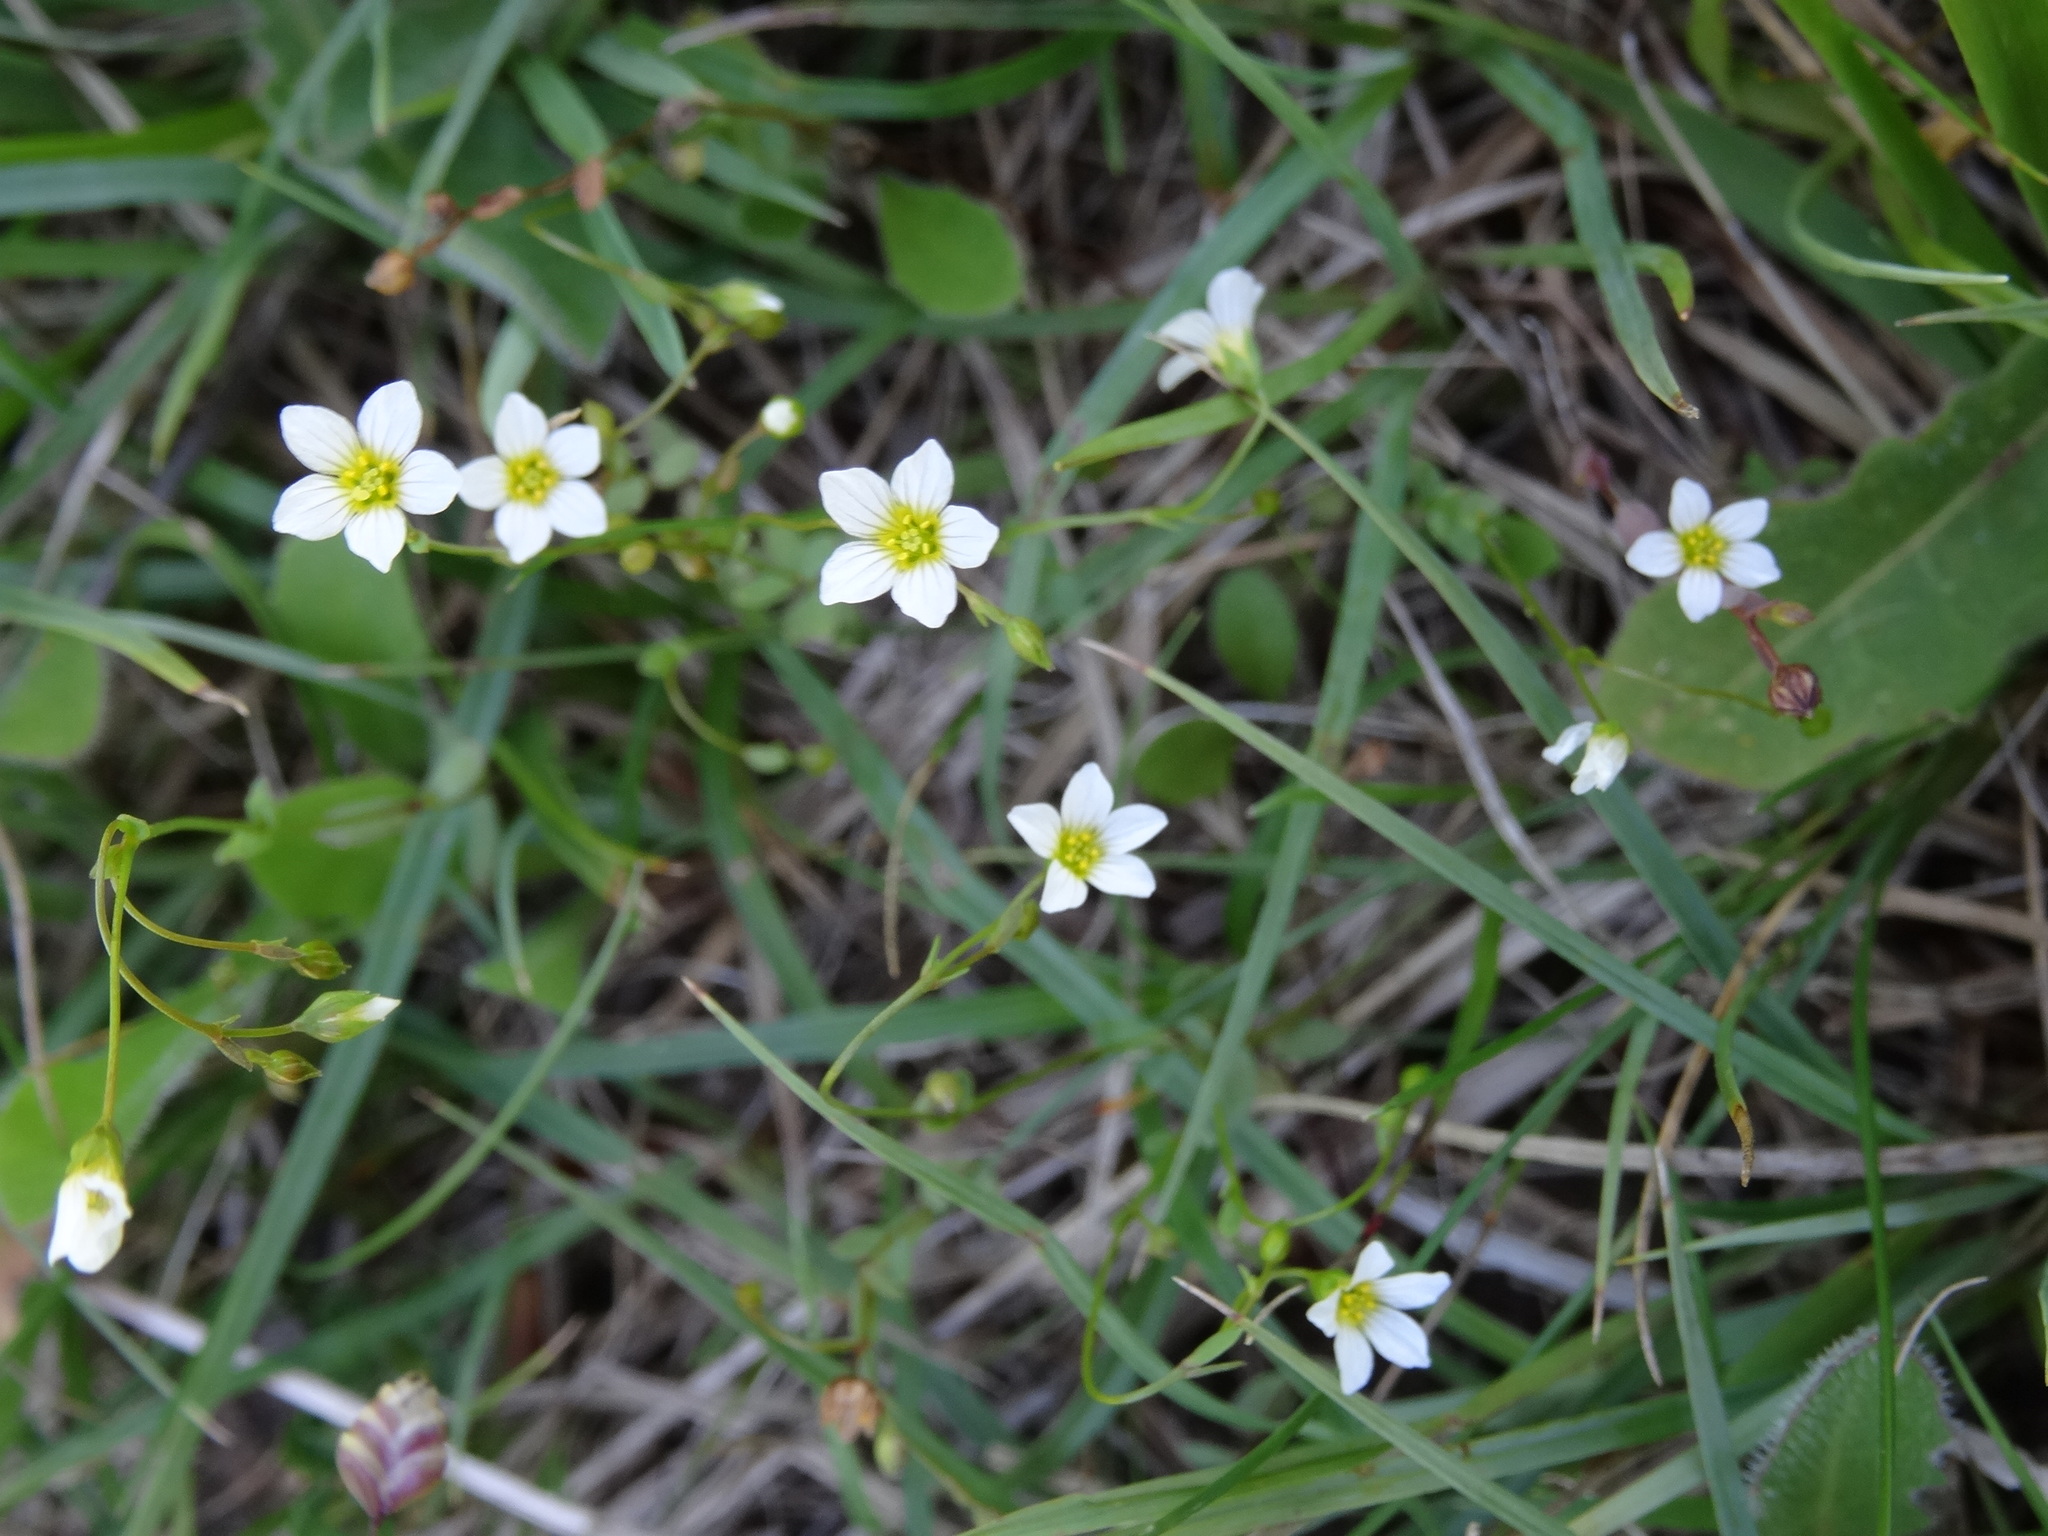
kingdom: Plantae
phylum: Tracheophyta
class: Magnoliopsida
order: Malpighiales
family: Linaceae
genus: Linum
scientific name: Linum catharticum
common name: Fairy flax
